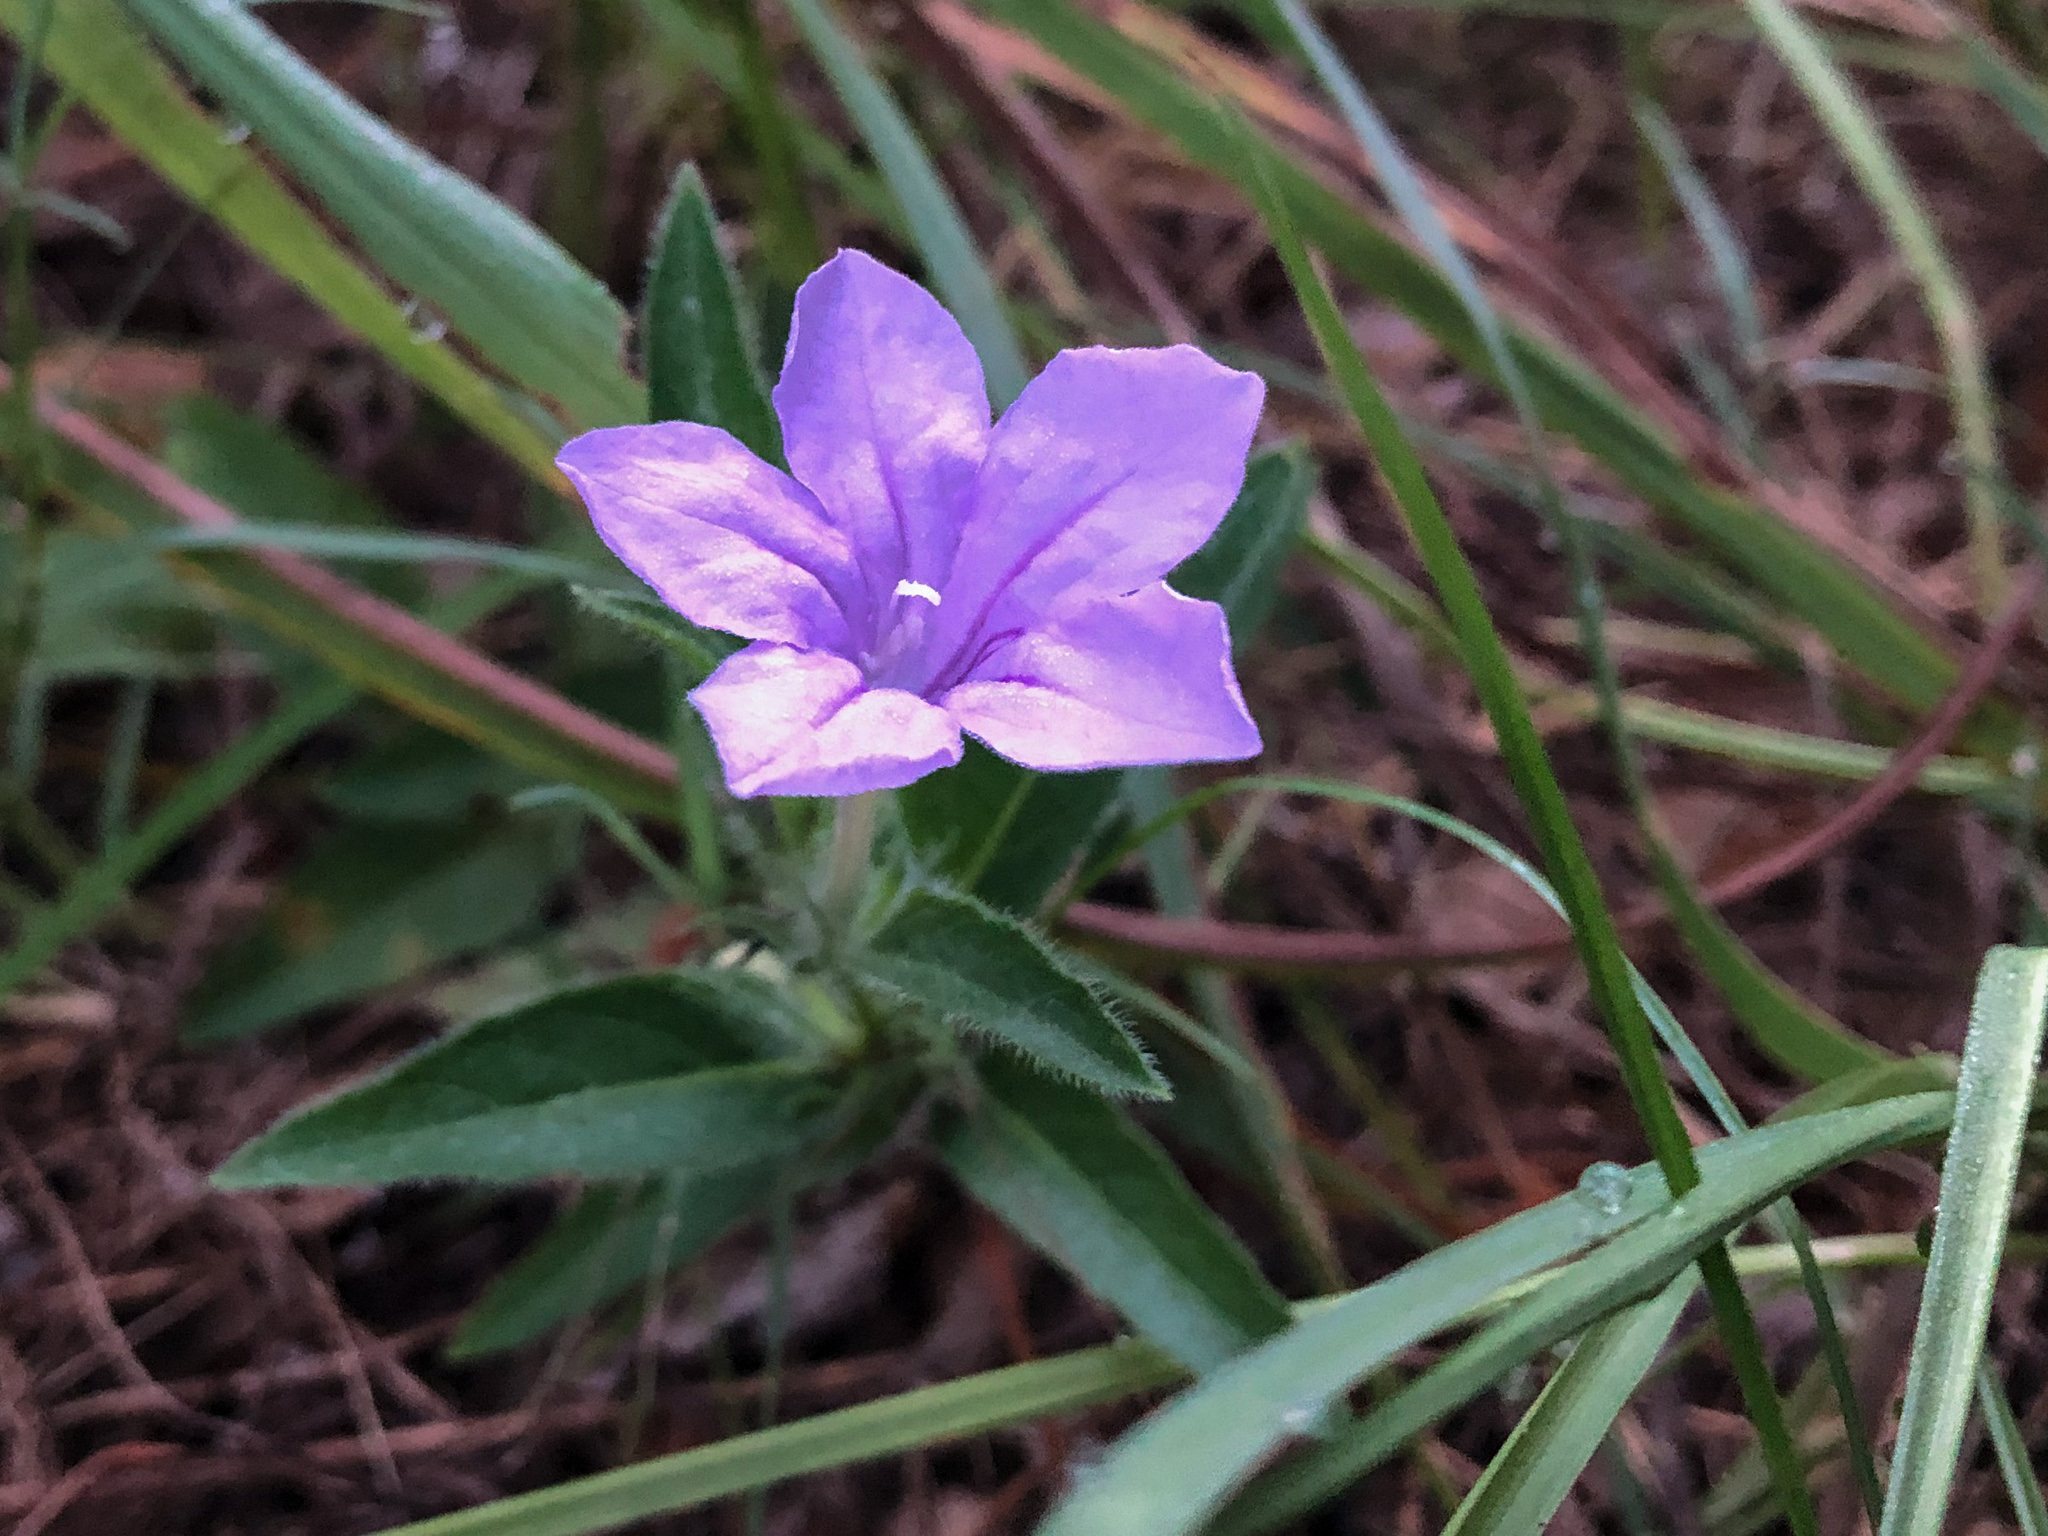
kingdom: Plantae
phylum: Tracheophyta
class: Magnoliopsida
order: Lamiales
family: Acanthaceae
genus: Ruellia
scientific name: Ruellia humilis
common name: Fringe-leaf ruellia
